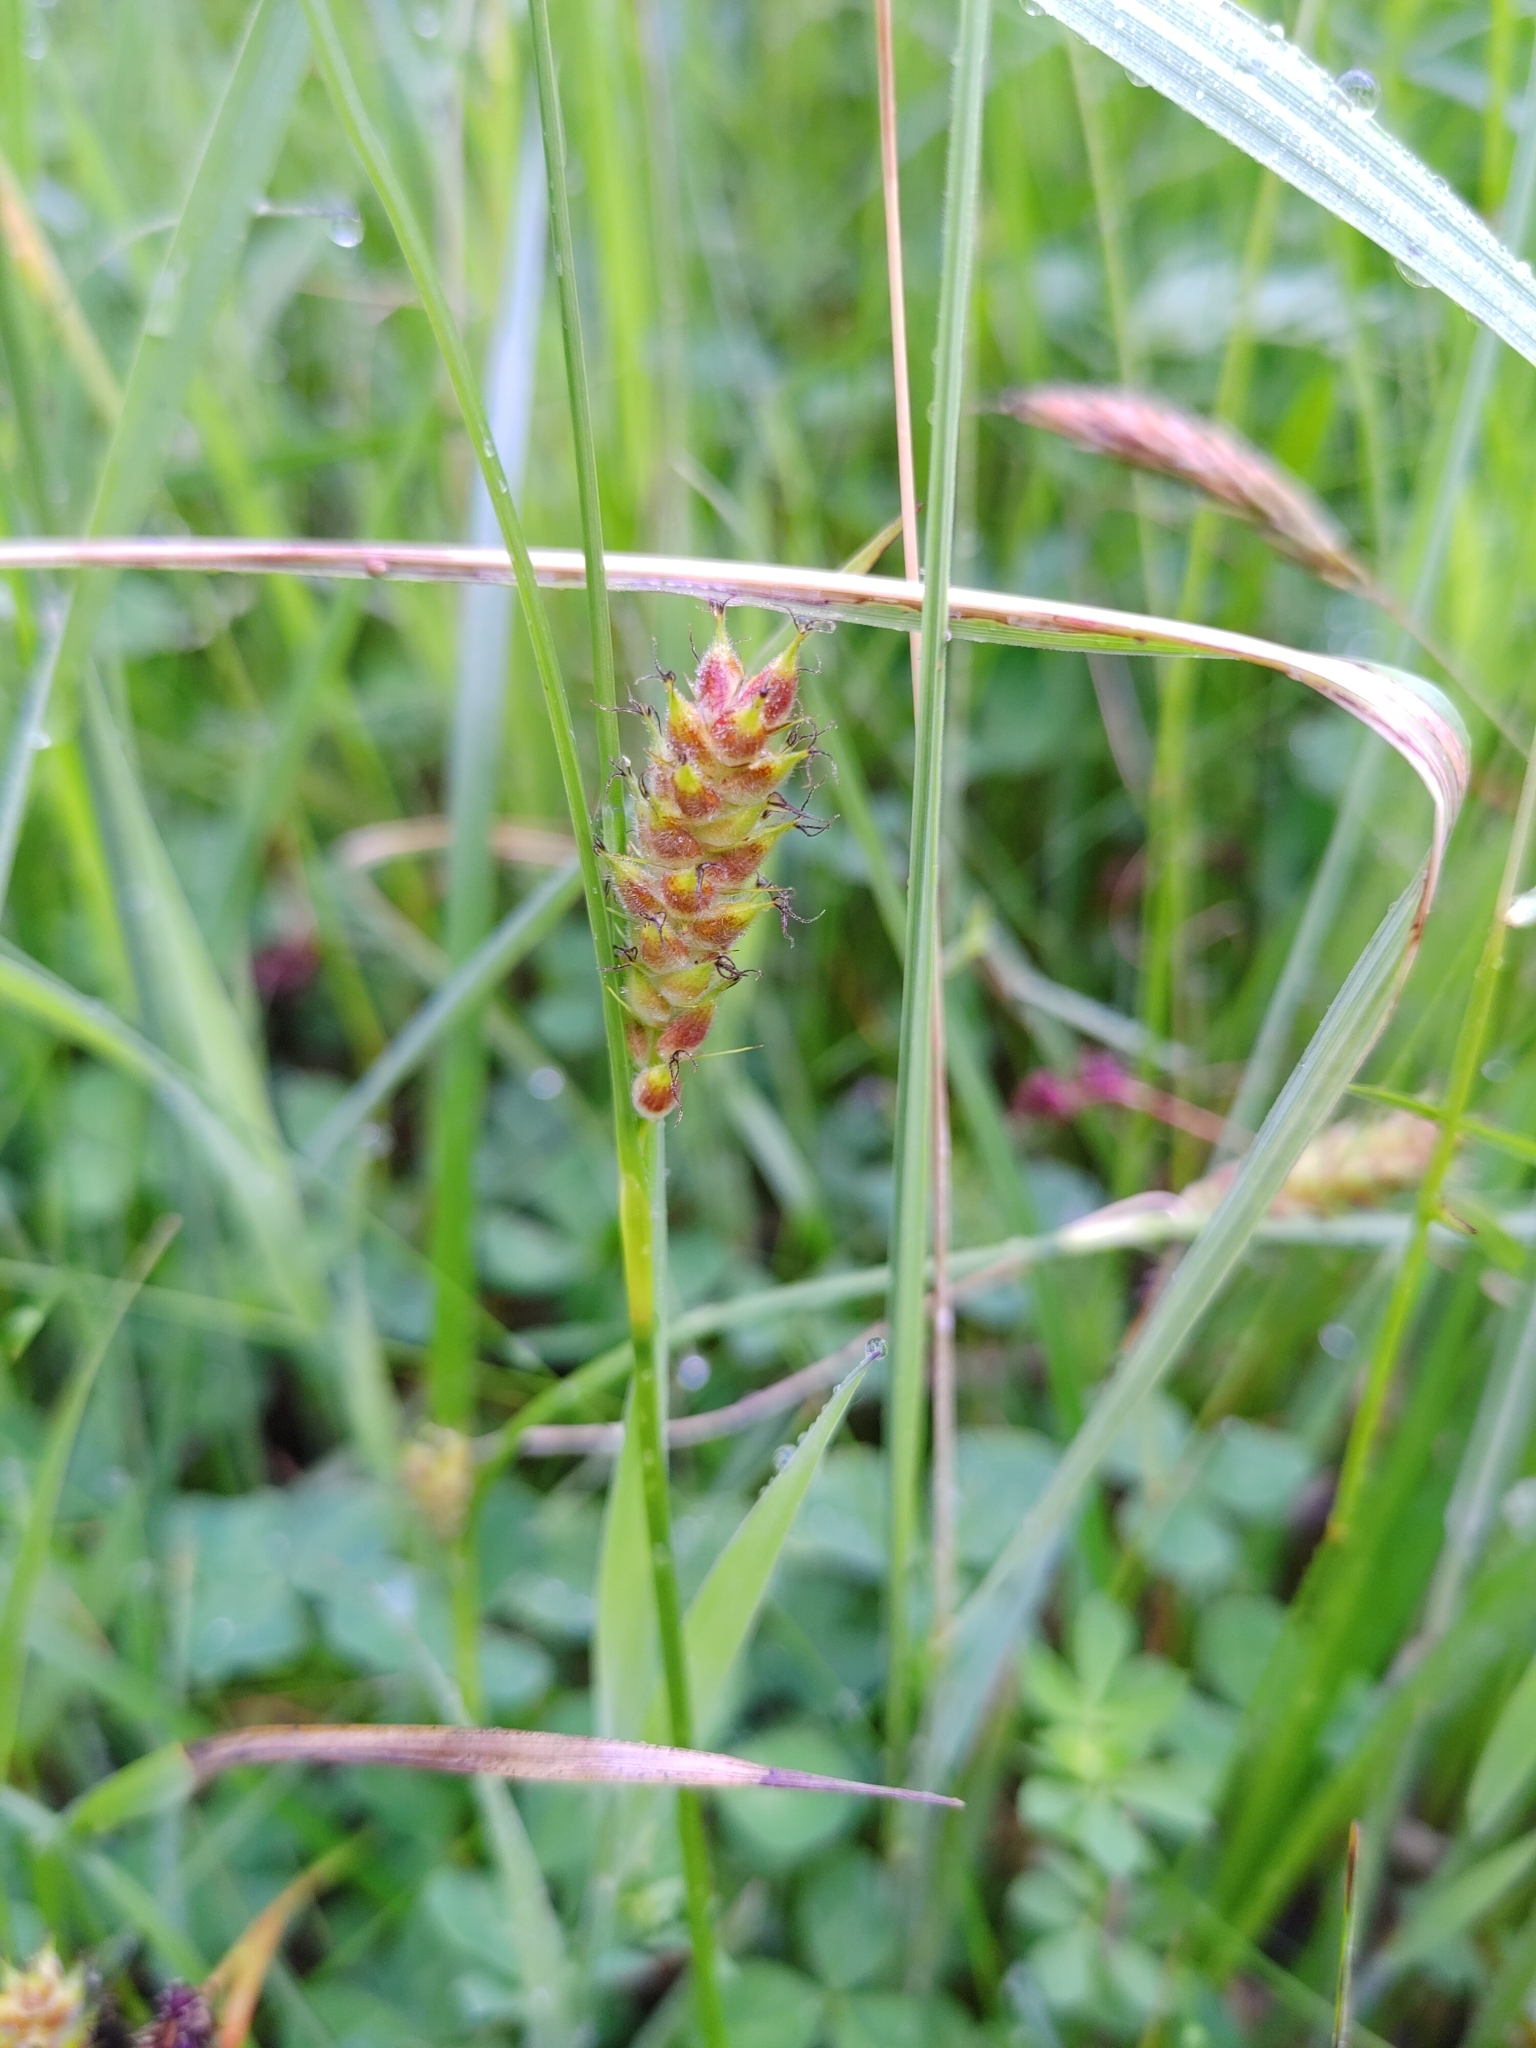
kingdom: Plantae
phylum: Tracheophyta
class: Liliopsida
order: Poales
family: Cyperaceae
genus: Carex
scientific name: Carex hirta
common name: Hairy sedge
